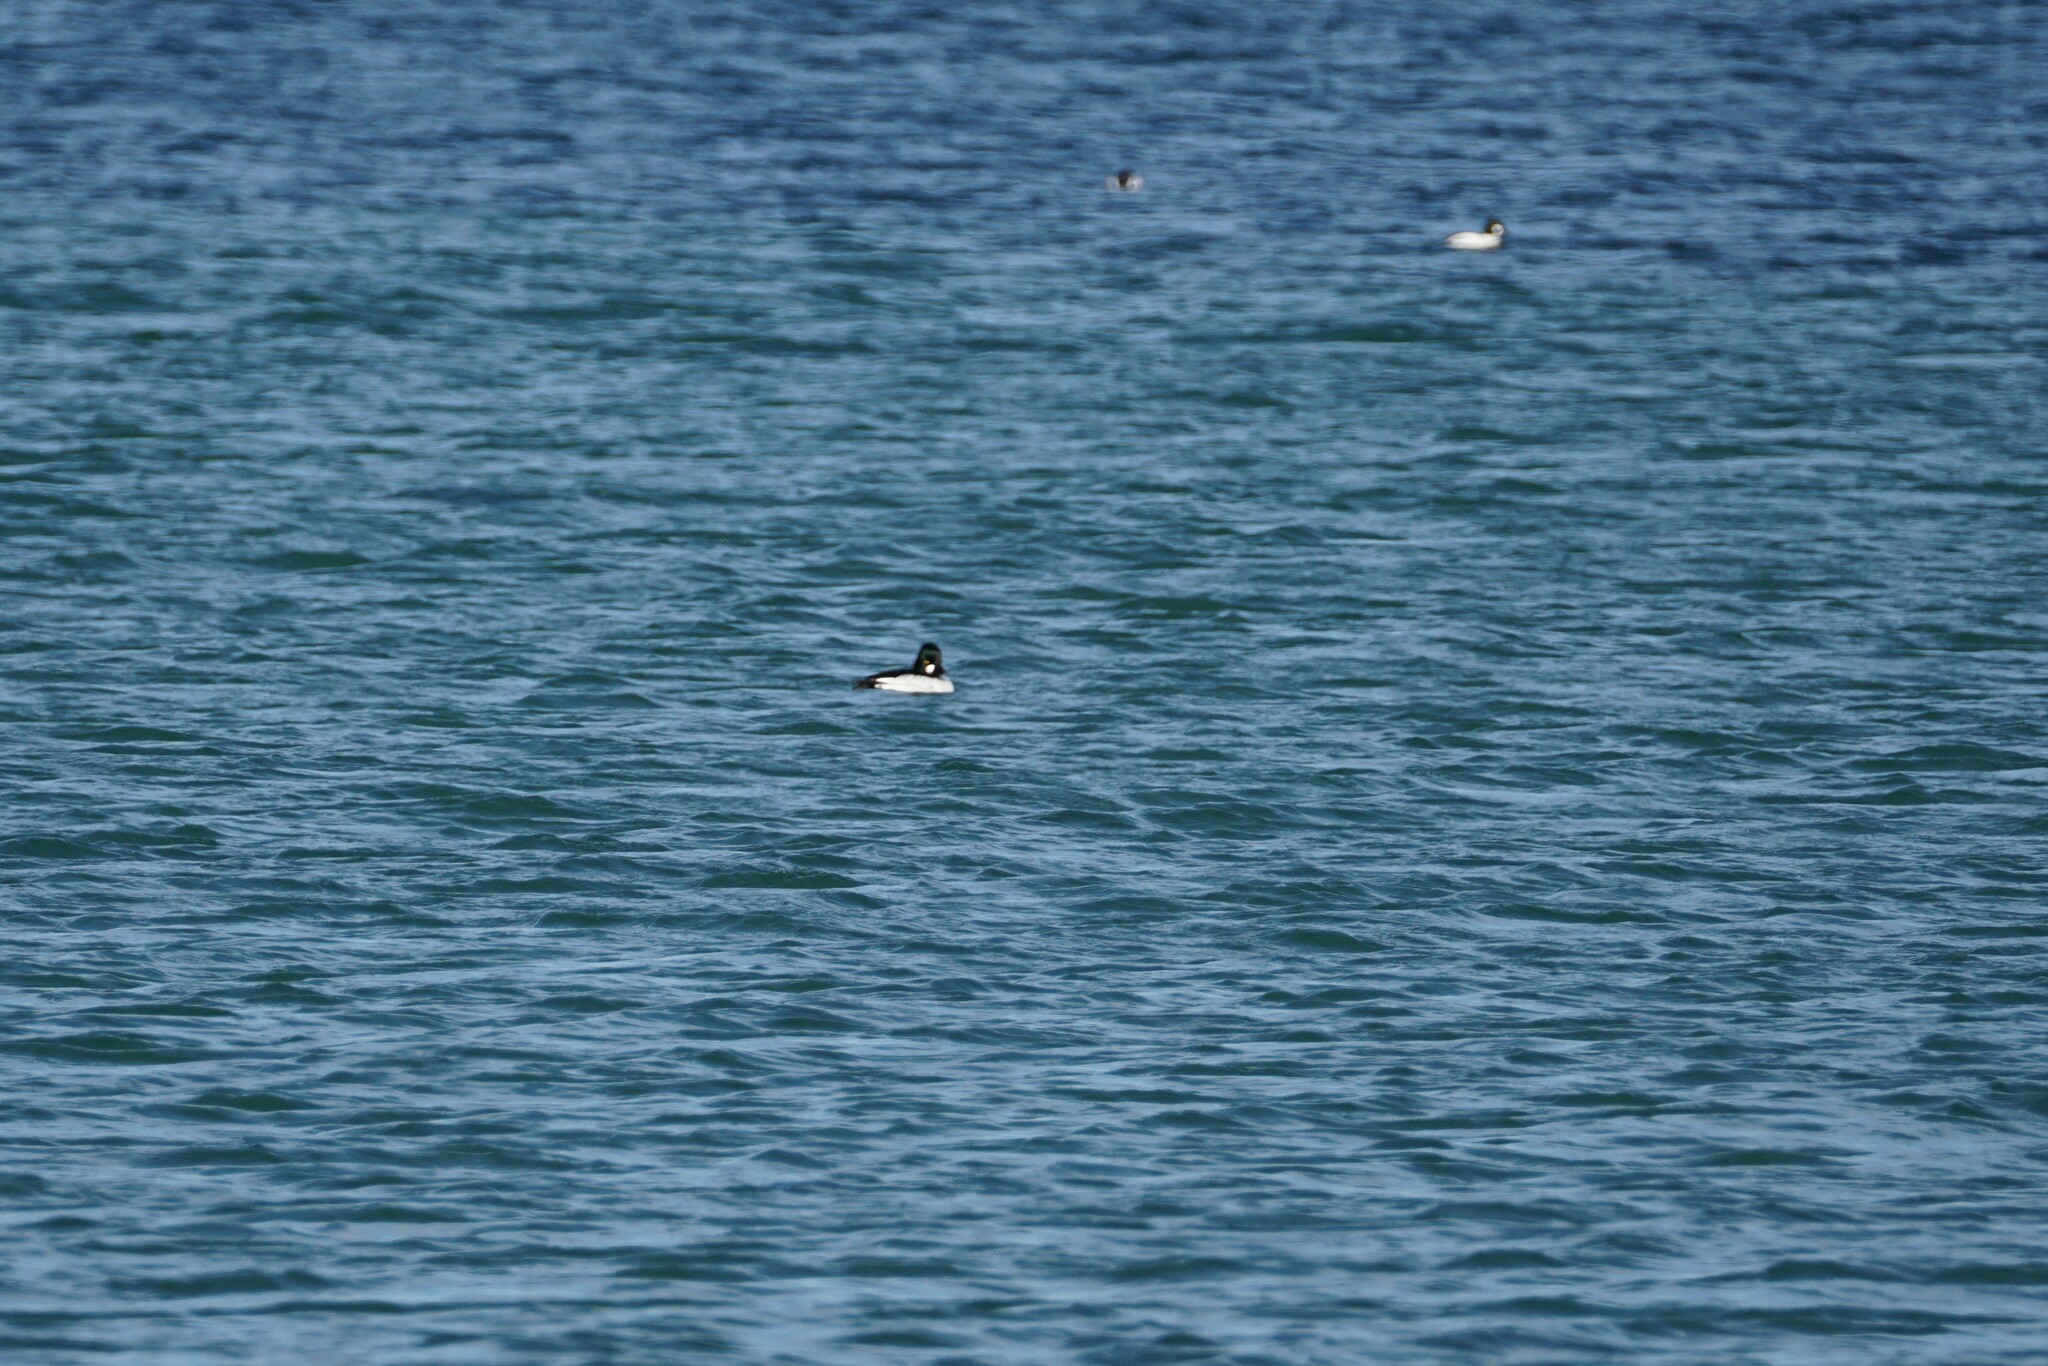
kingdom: Animalia
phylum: Chordata
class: Aves
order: Anseriformes
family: Anatidae
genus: Bucephala
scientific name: Bucephala clangula
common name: Common goldeneye
